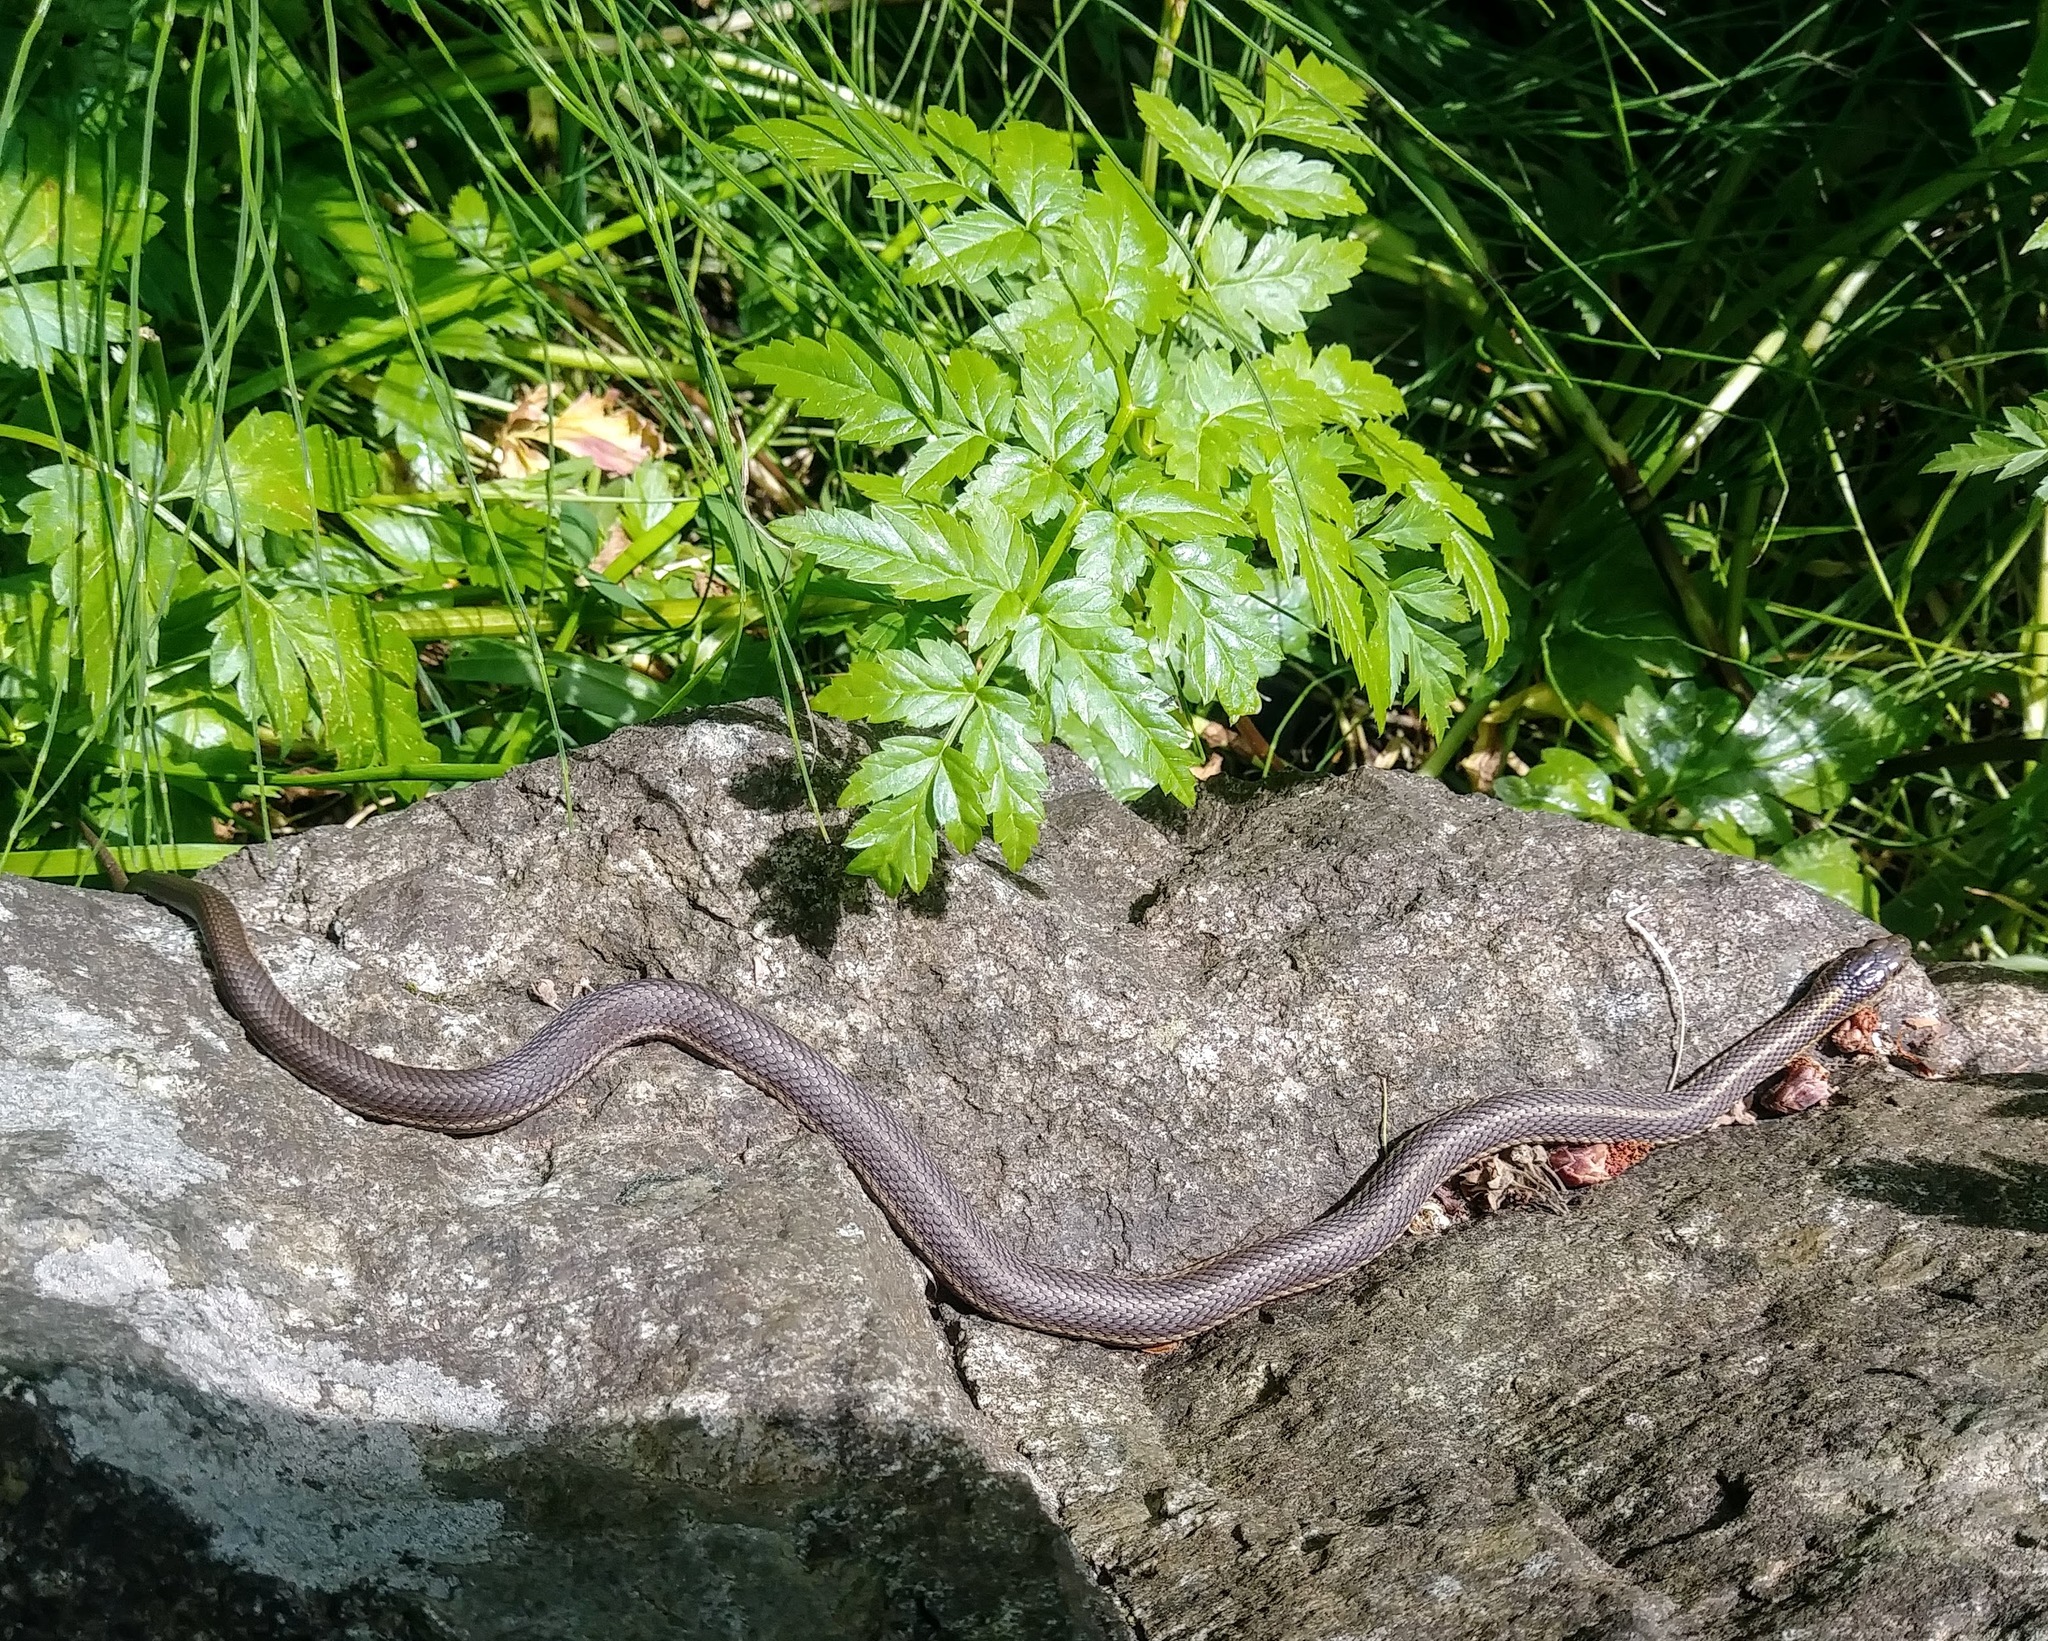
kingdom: Animalia
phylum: Chordata
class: Squamata
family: Colubridae
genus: Thamnophis
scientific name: Thamnophis ordinoides
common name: Northwestern garter snake
